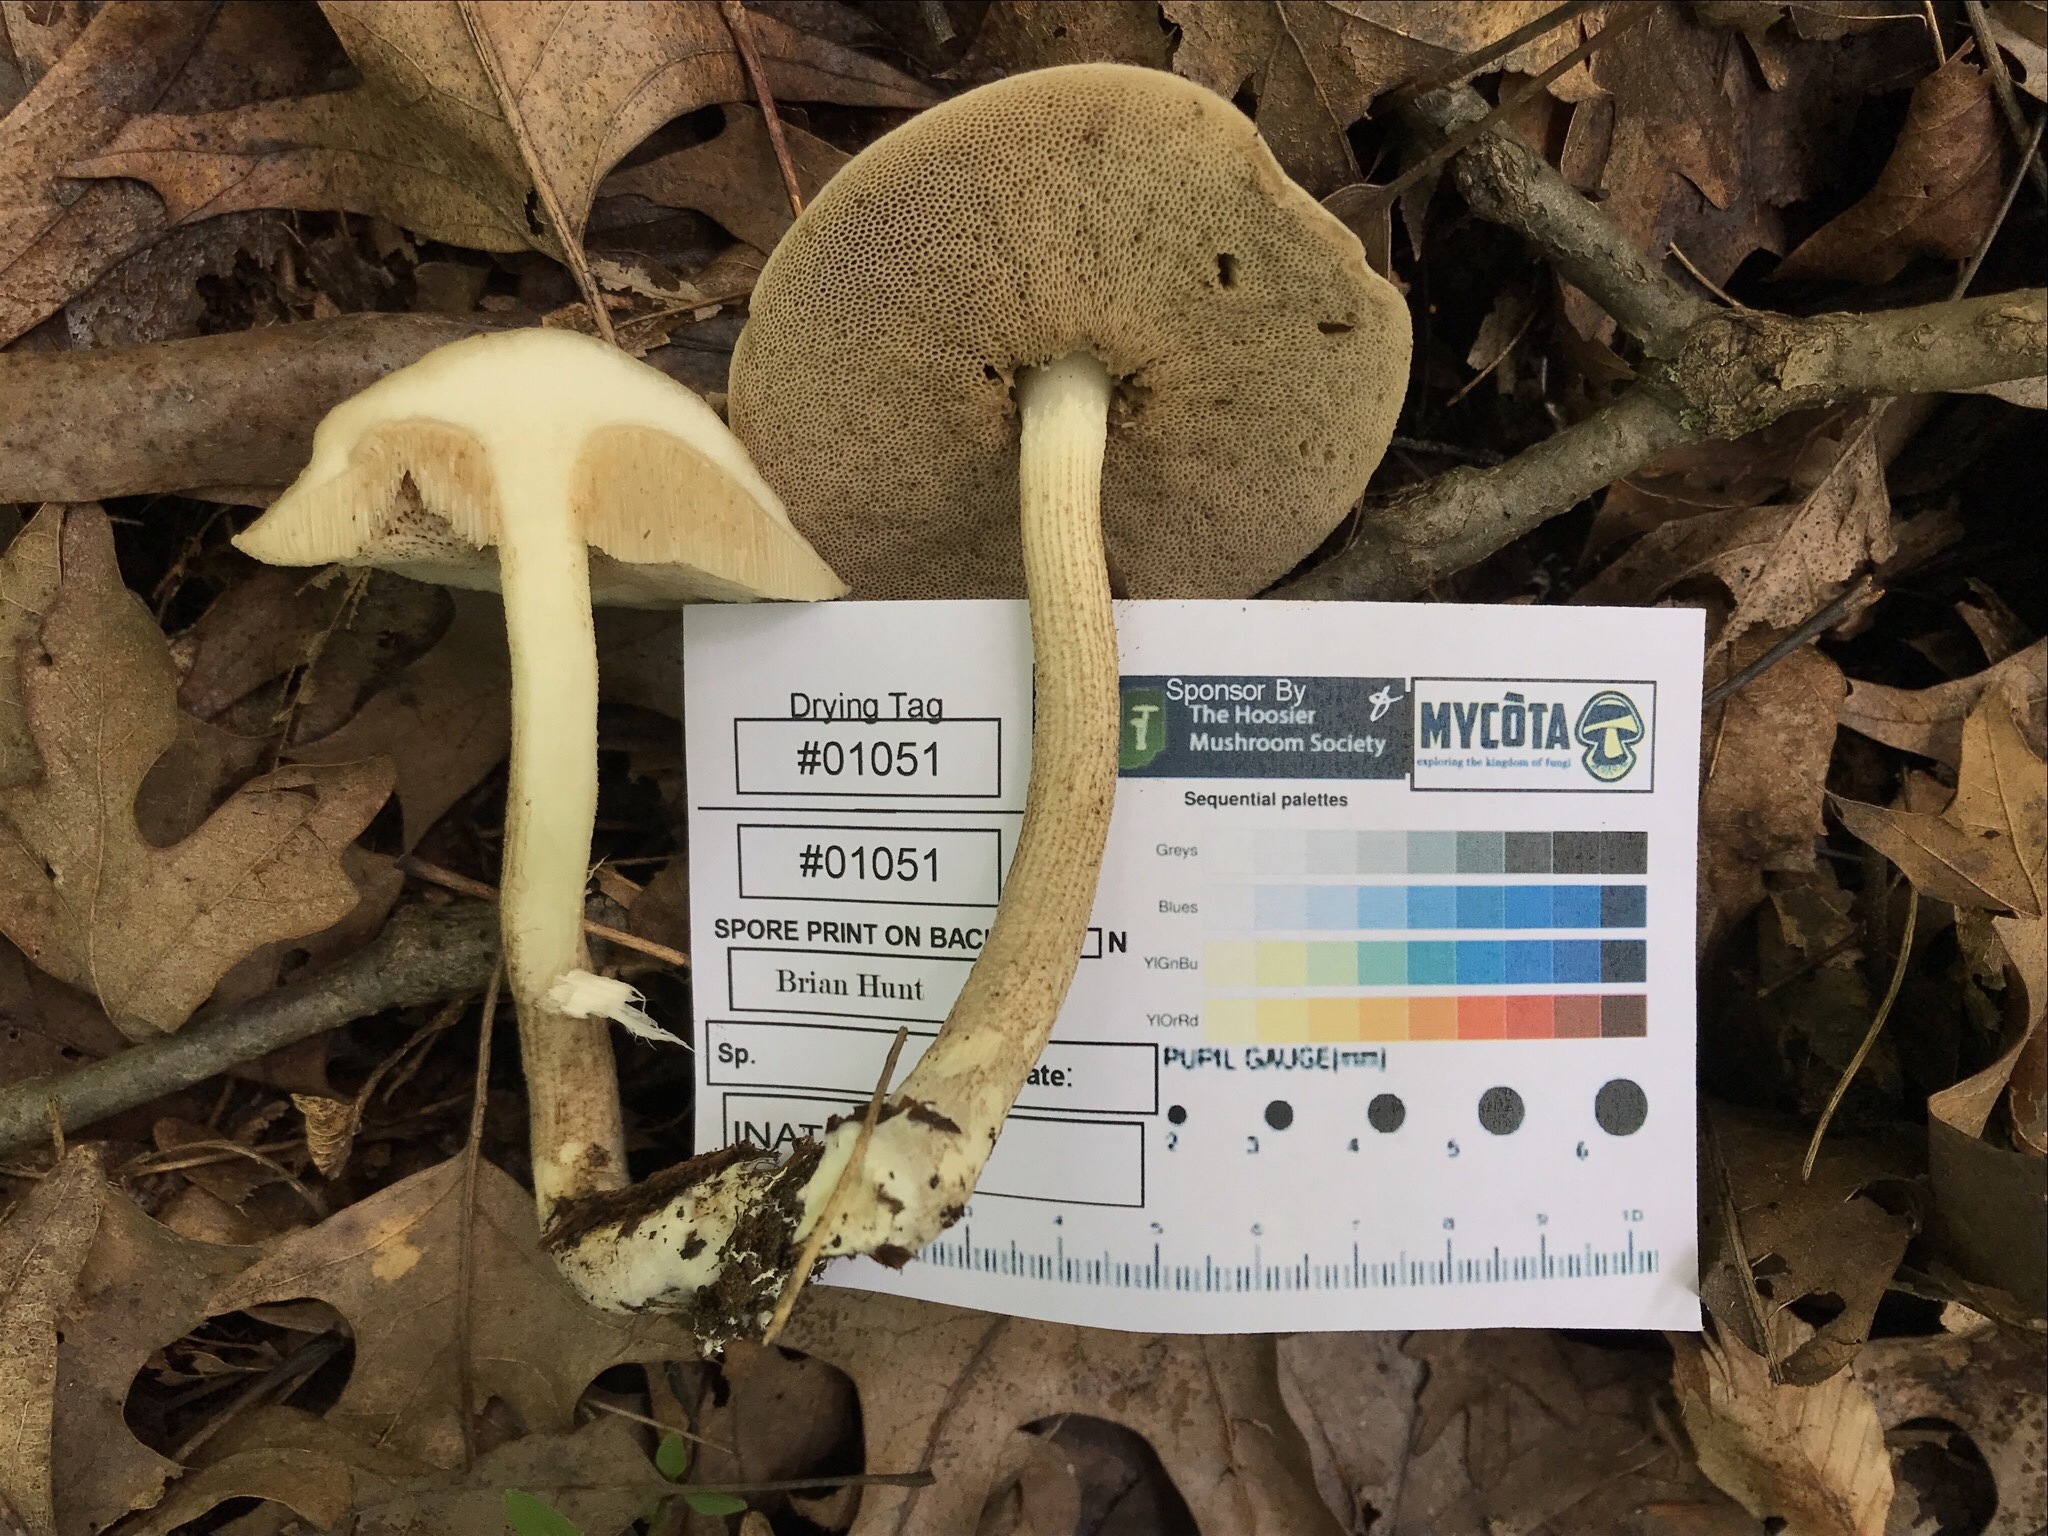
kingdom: Fungi
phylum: Basidiomycota
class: Agaricomycetes
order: Boletales
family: Boletaceae
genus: Leccinellum
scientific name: Leccinellum albellum
